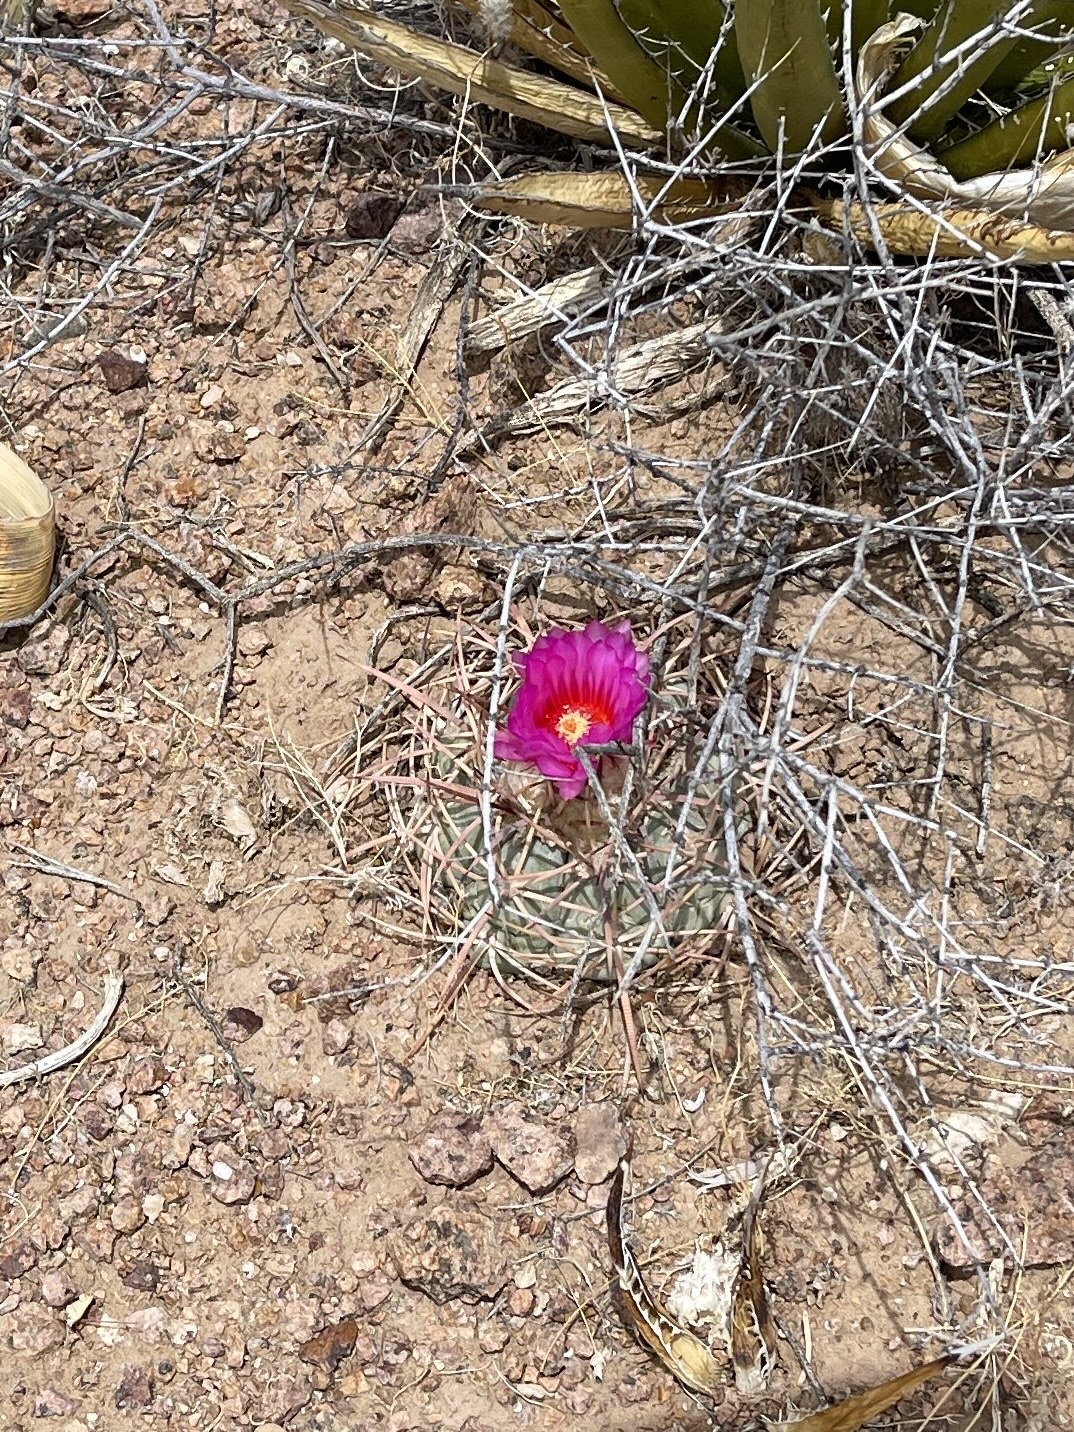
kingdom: Plantae
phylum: Tracheophyta
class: Magnoliopsida
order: Caryophyllales
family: Cactaceae
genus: Echinocactus
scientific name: Echinocactus horizonthalonius
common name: Devilshead
